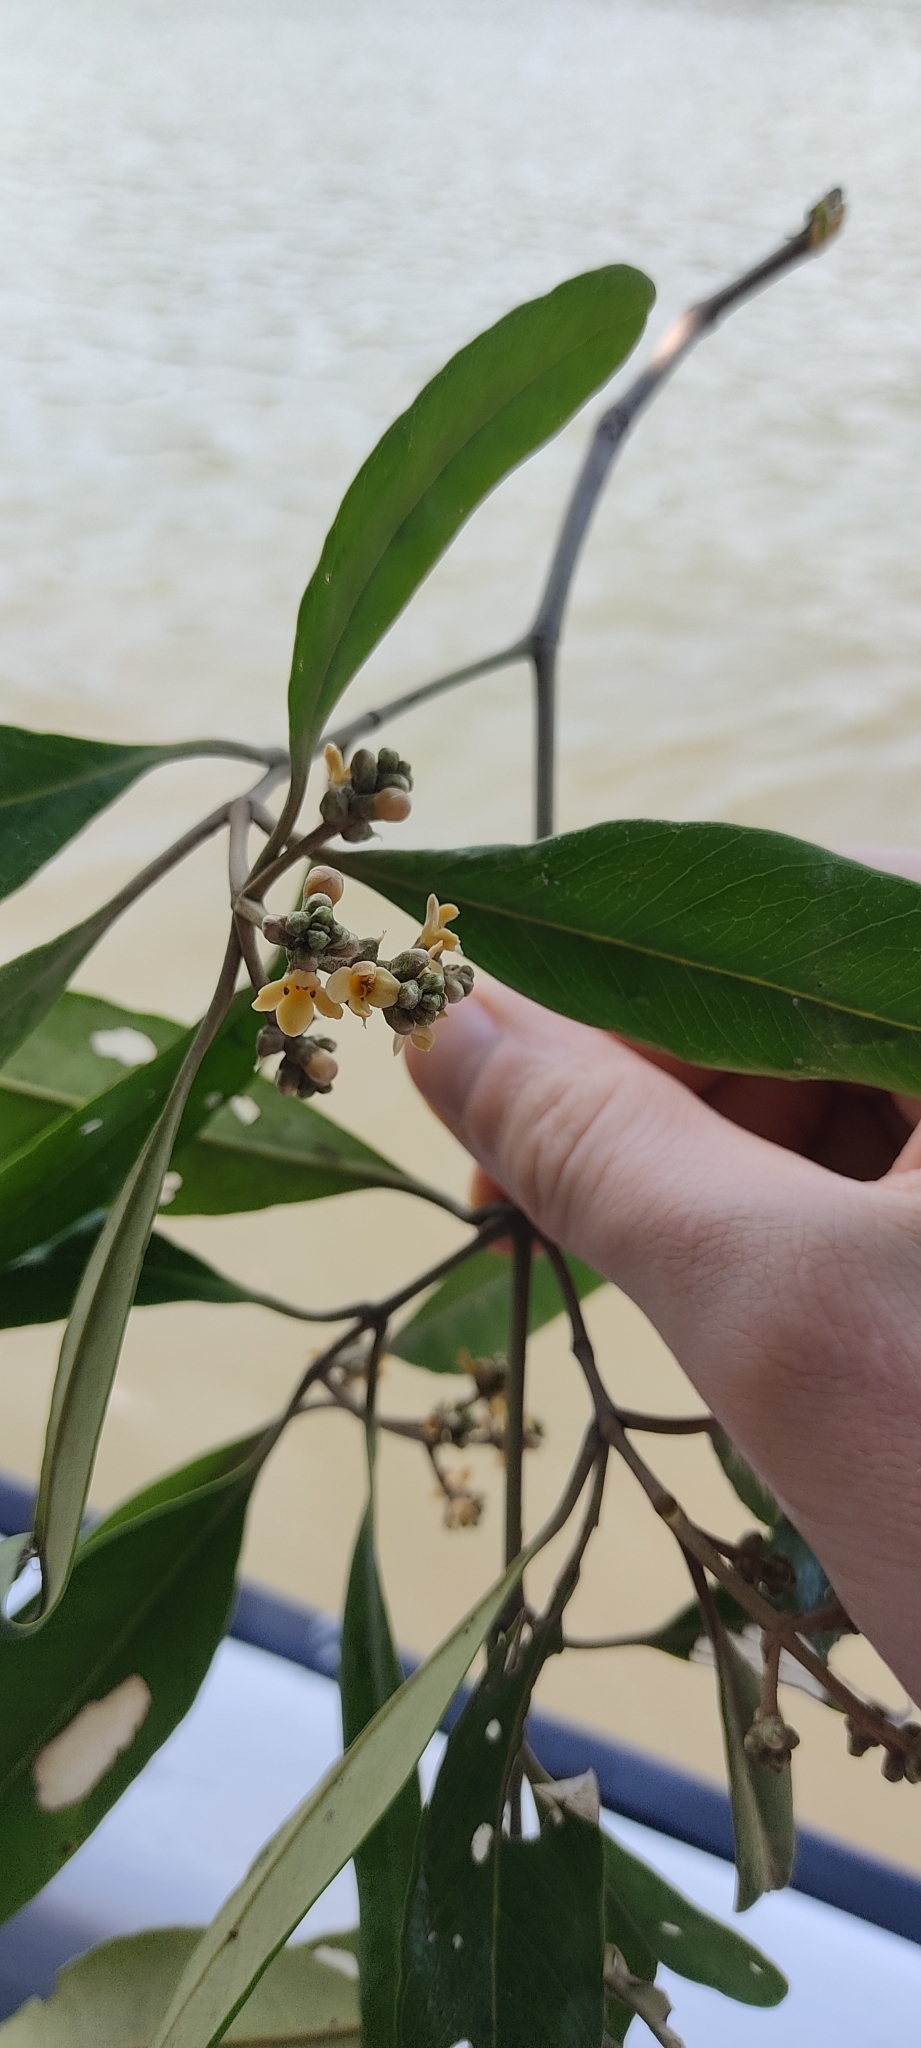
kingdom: Plantae
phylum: Tracheophyta
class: Magnoliopsida
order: Lamiales
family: Acanthaceae
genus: Avicennia
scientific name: Avicennia germinans
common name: Black mangrove
